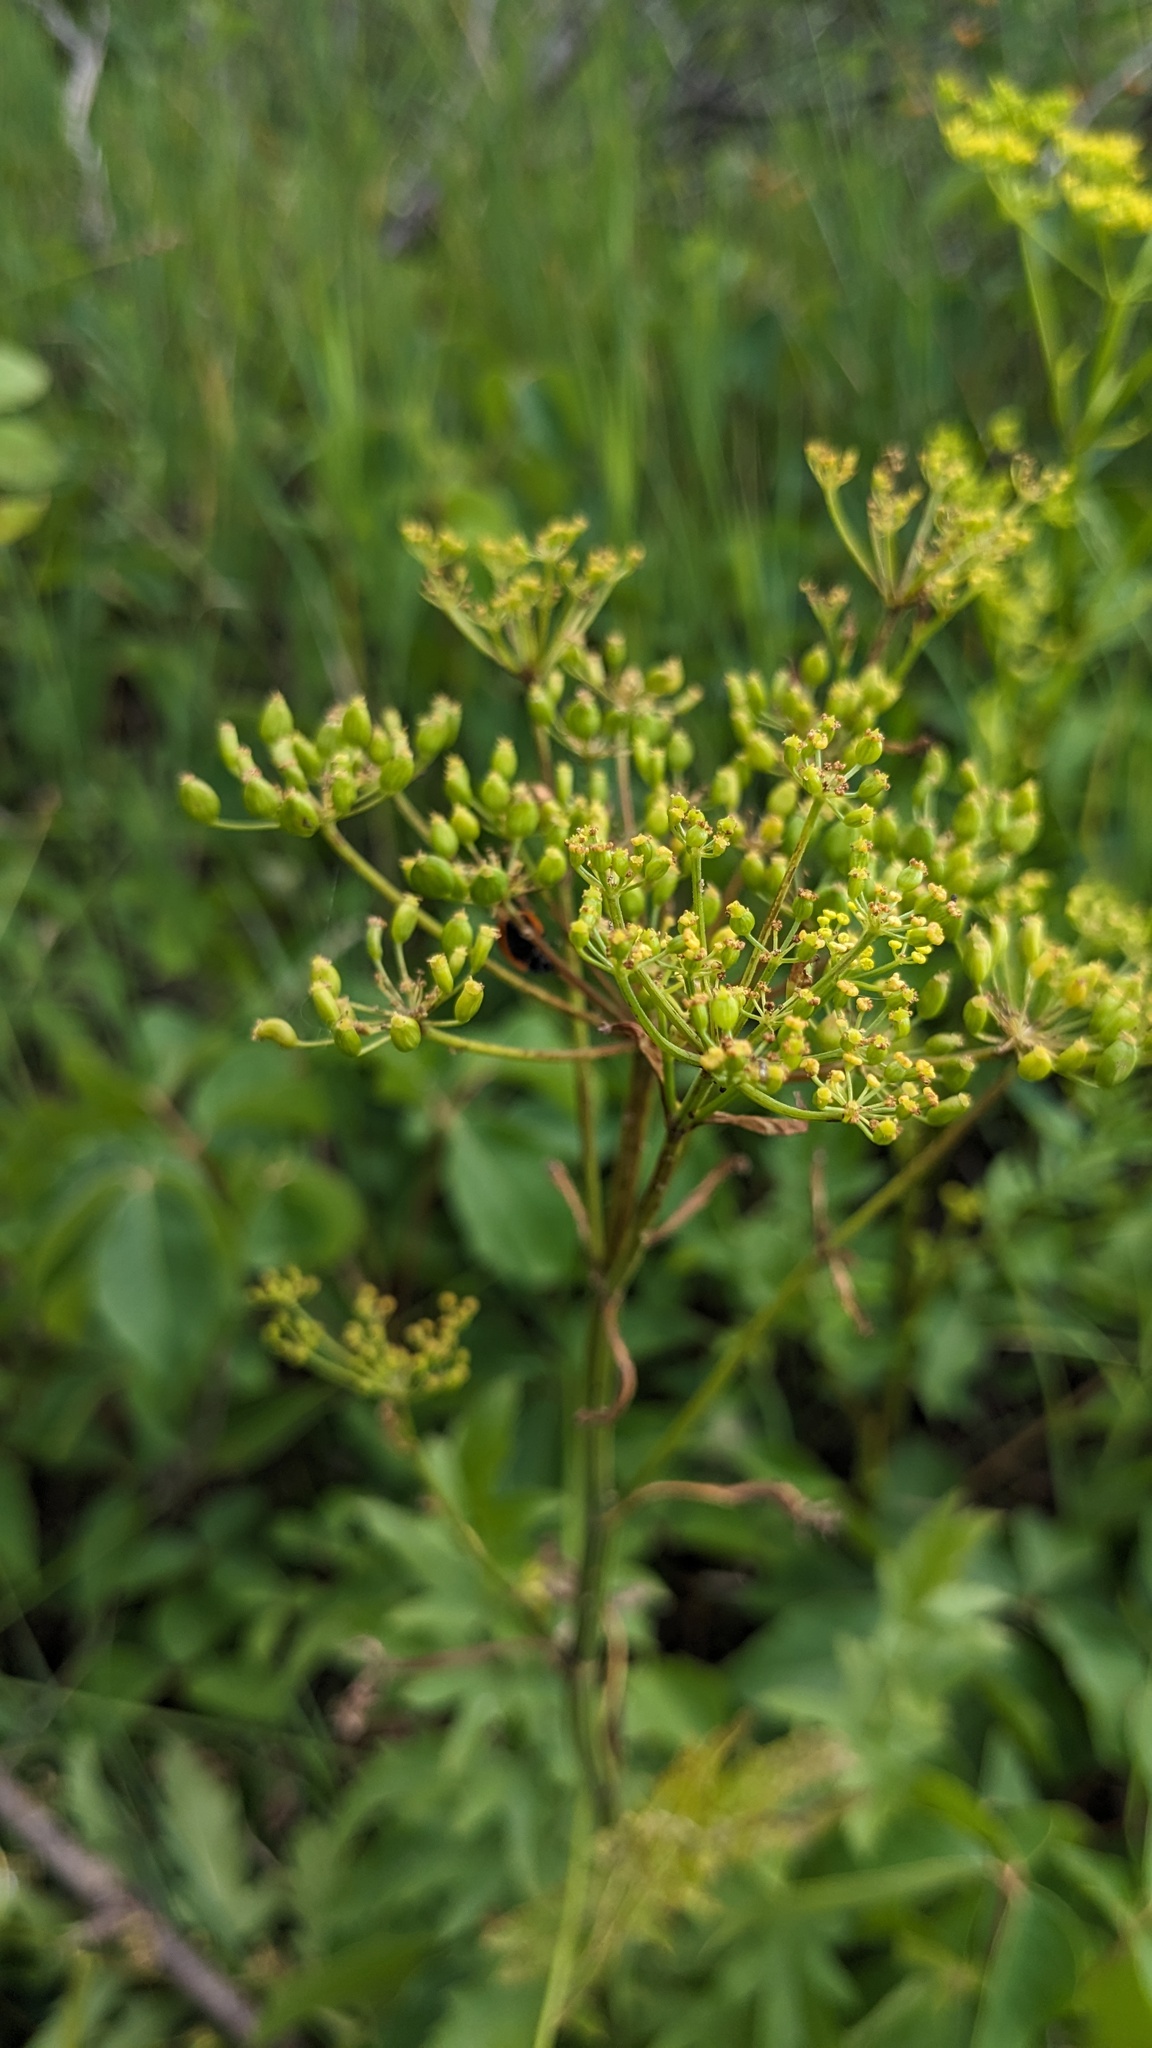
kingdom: Plantae
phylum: Tracheophyta
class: Magnoliopsida
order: Apiales
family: Apiaceae
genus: Pastinaca
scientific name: Pastinaca sativa
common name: Wild parsnip
